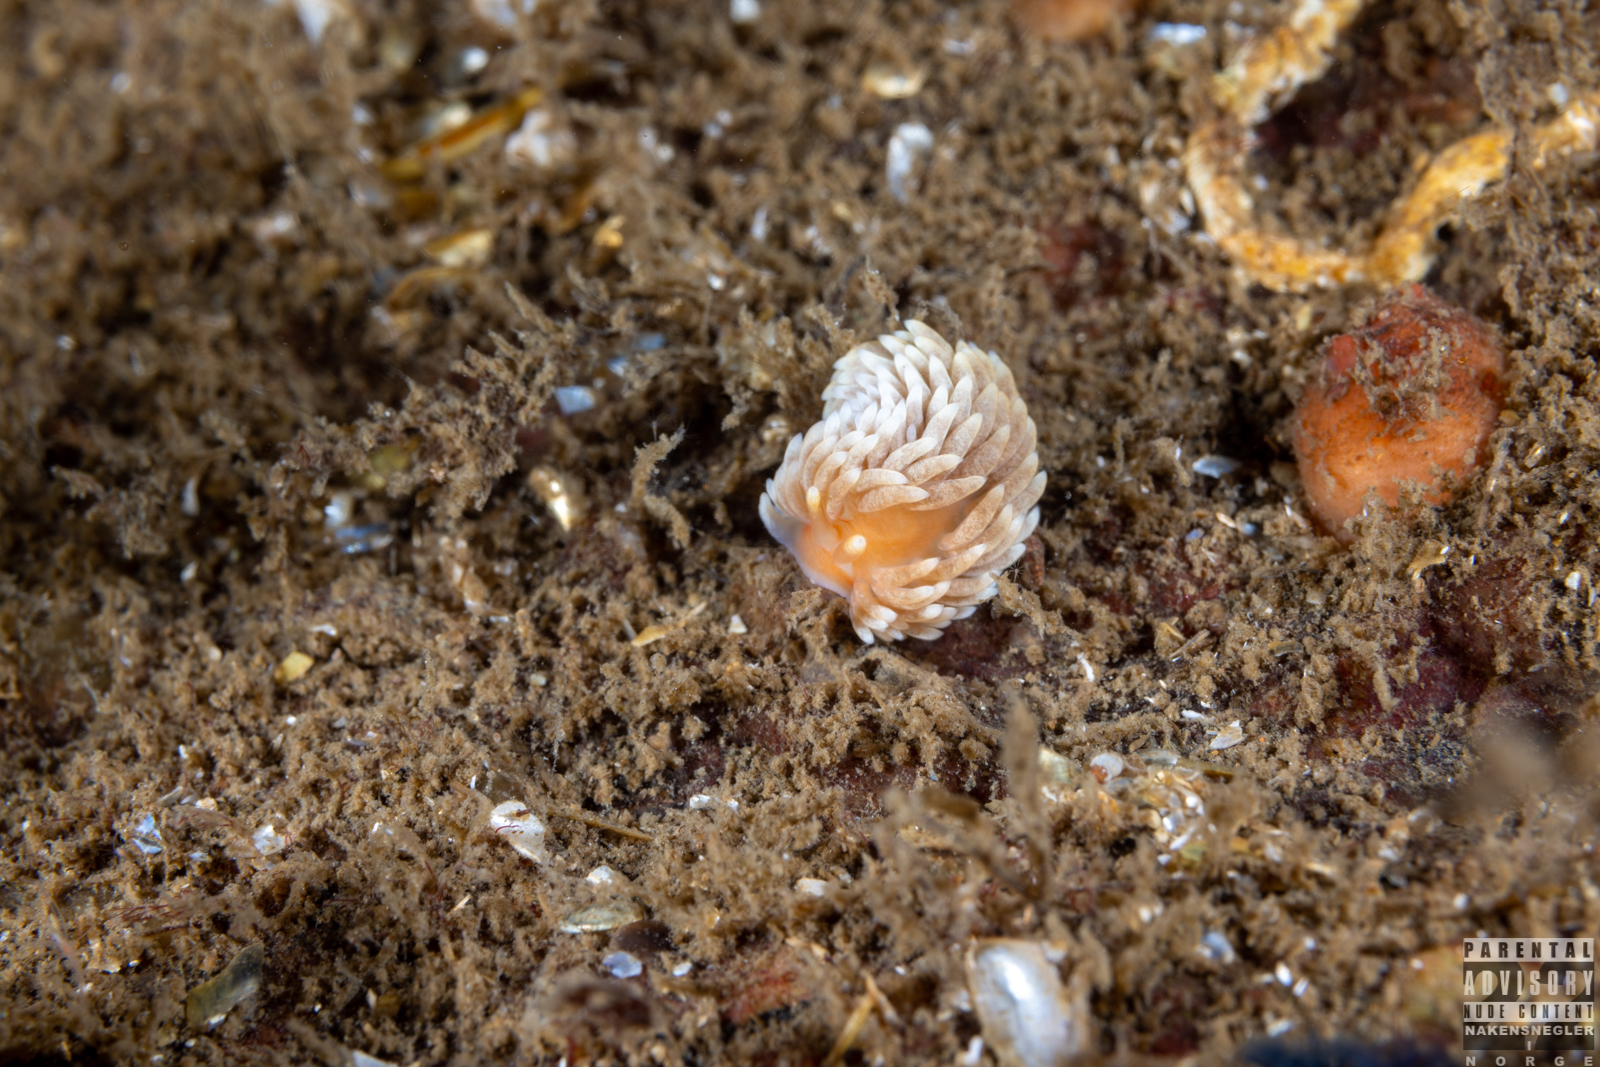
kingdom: Animalia
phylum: Mollusca
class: Gastropoda
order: Nudibranchia
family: Aeolidiidae
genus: Aeolidiella
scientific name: Aeolidiella glauca
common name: Orange-brown aeolid
